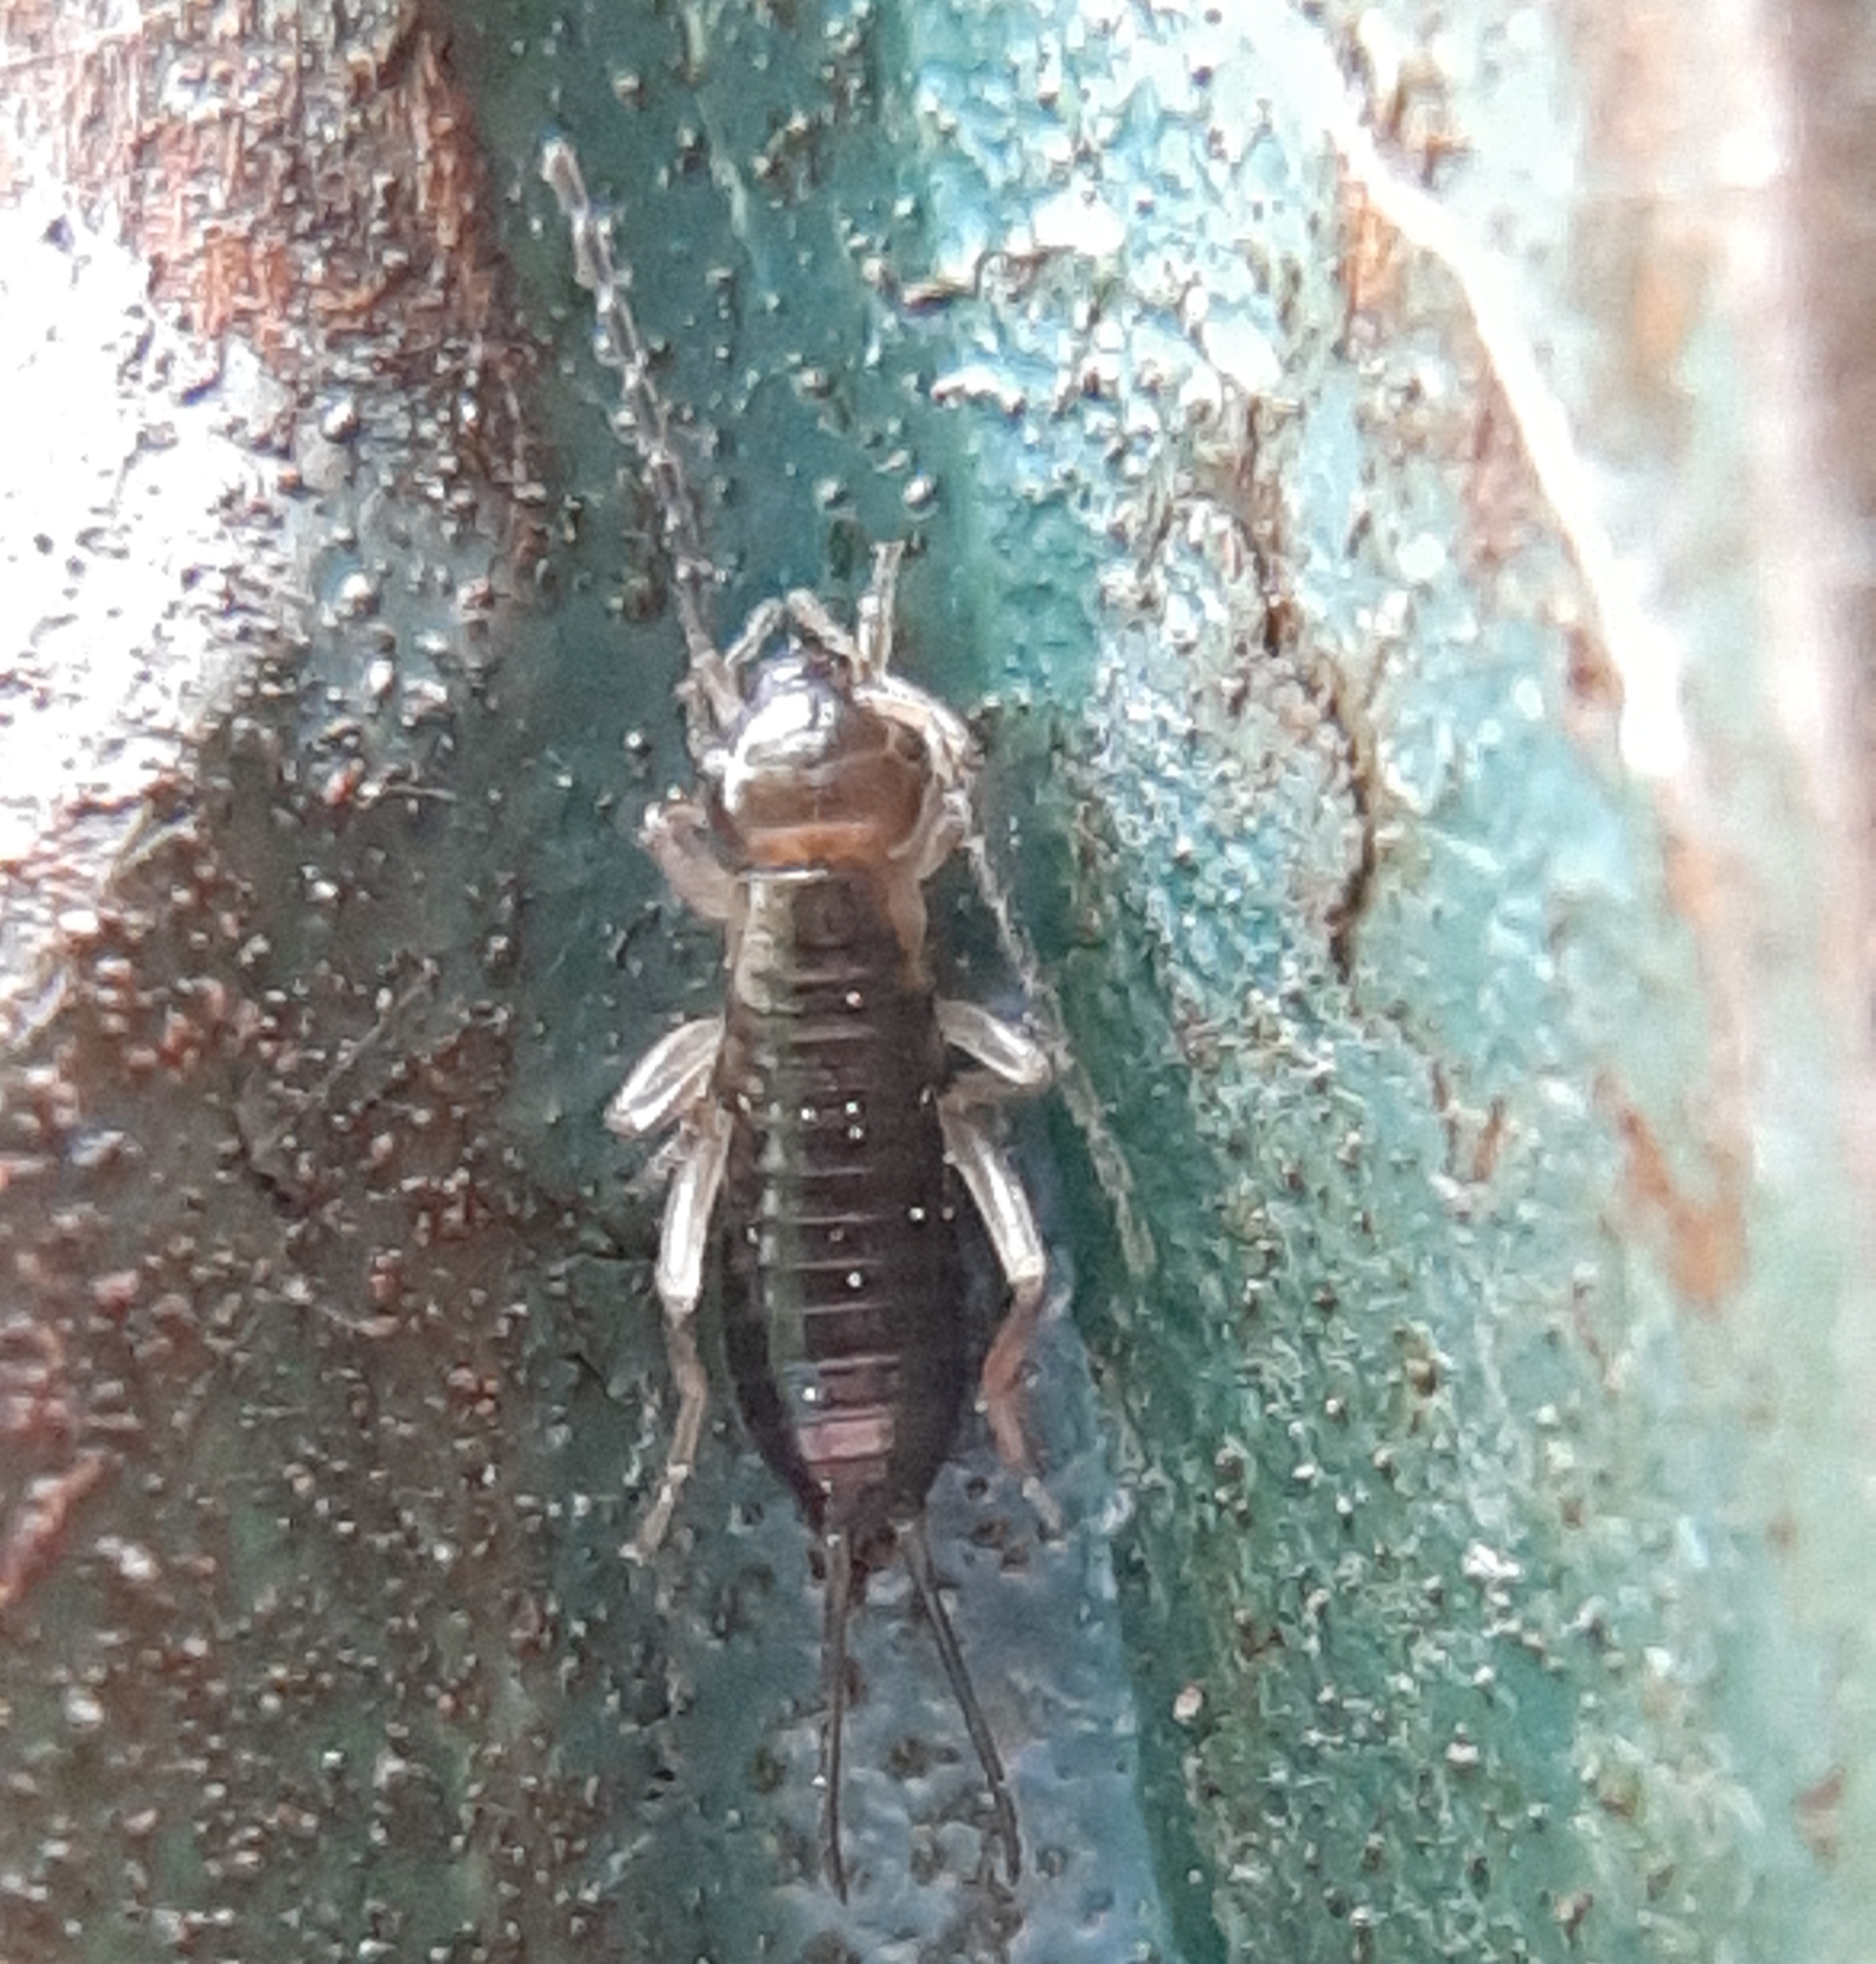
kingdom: Animalia
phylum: Arthropoda
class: Insecta
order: Dermaptera
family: Forficulidae
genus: Forficula
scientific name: Forficula
